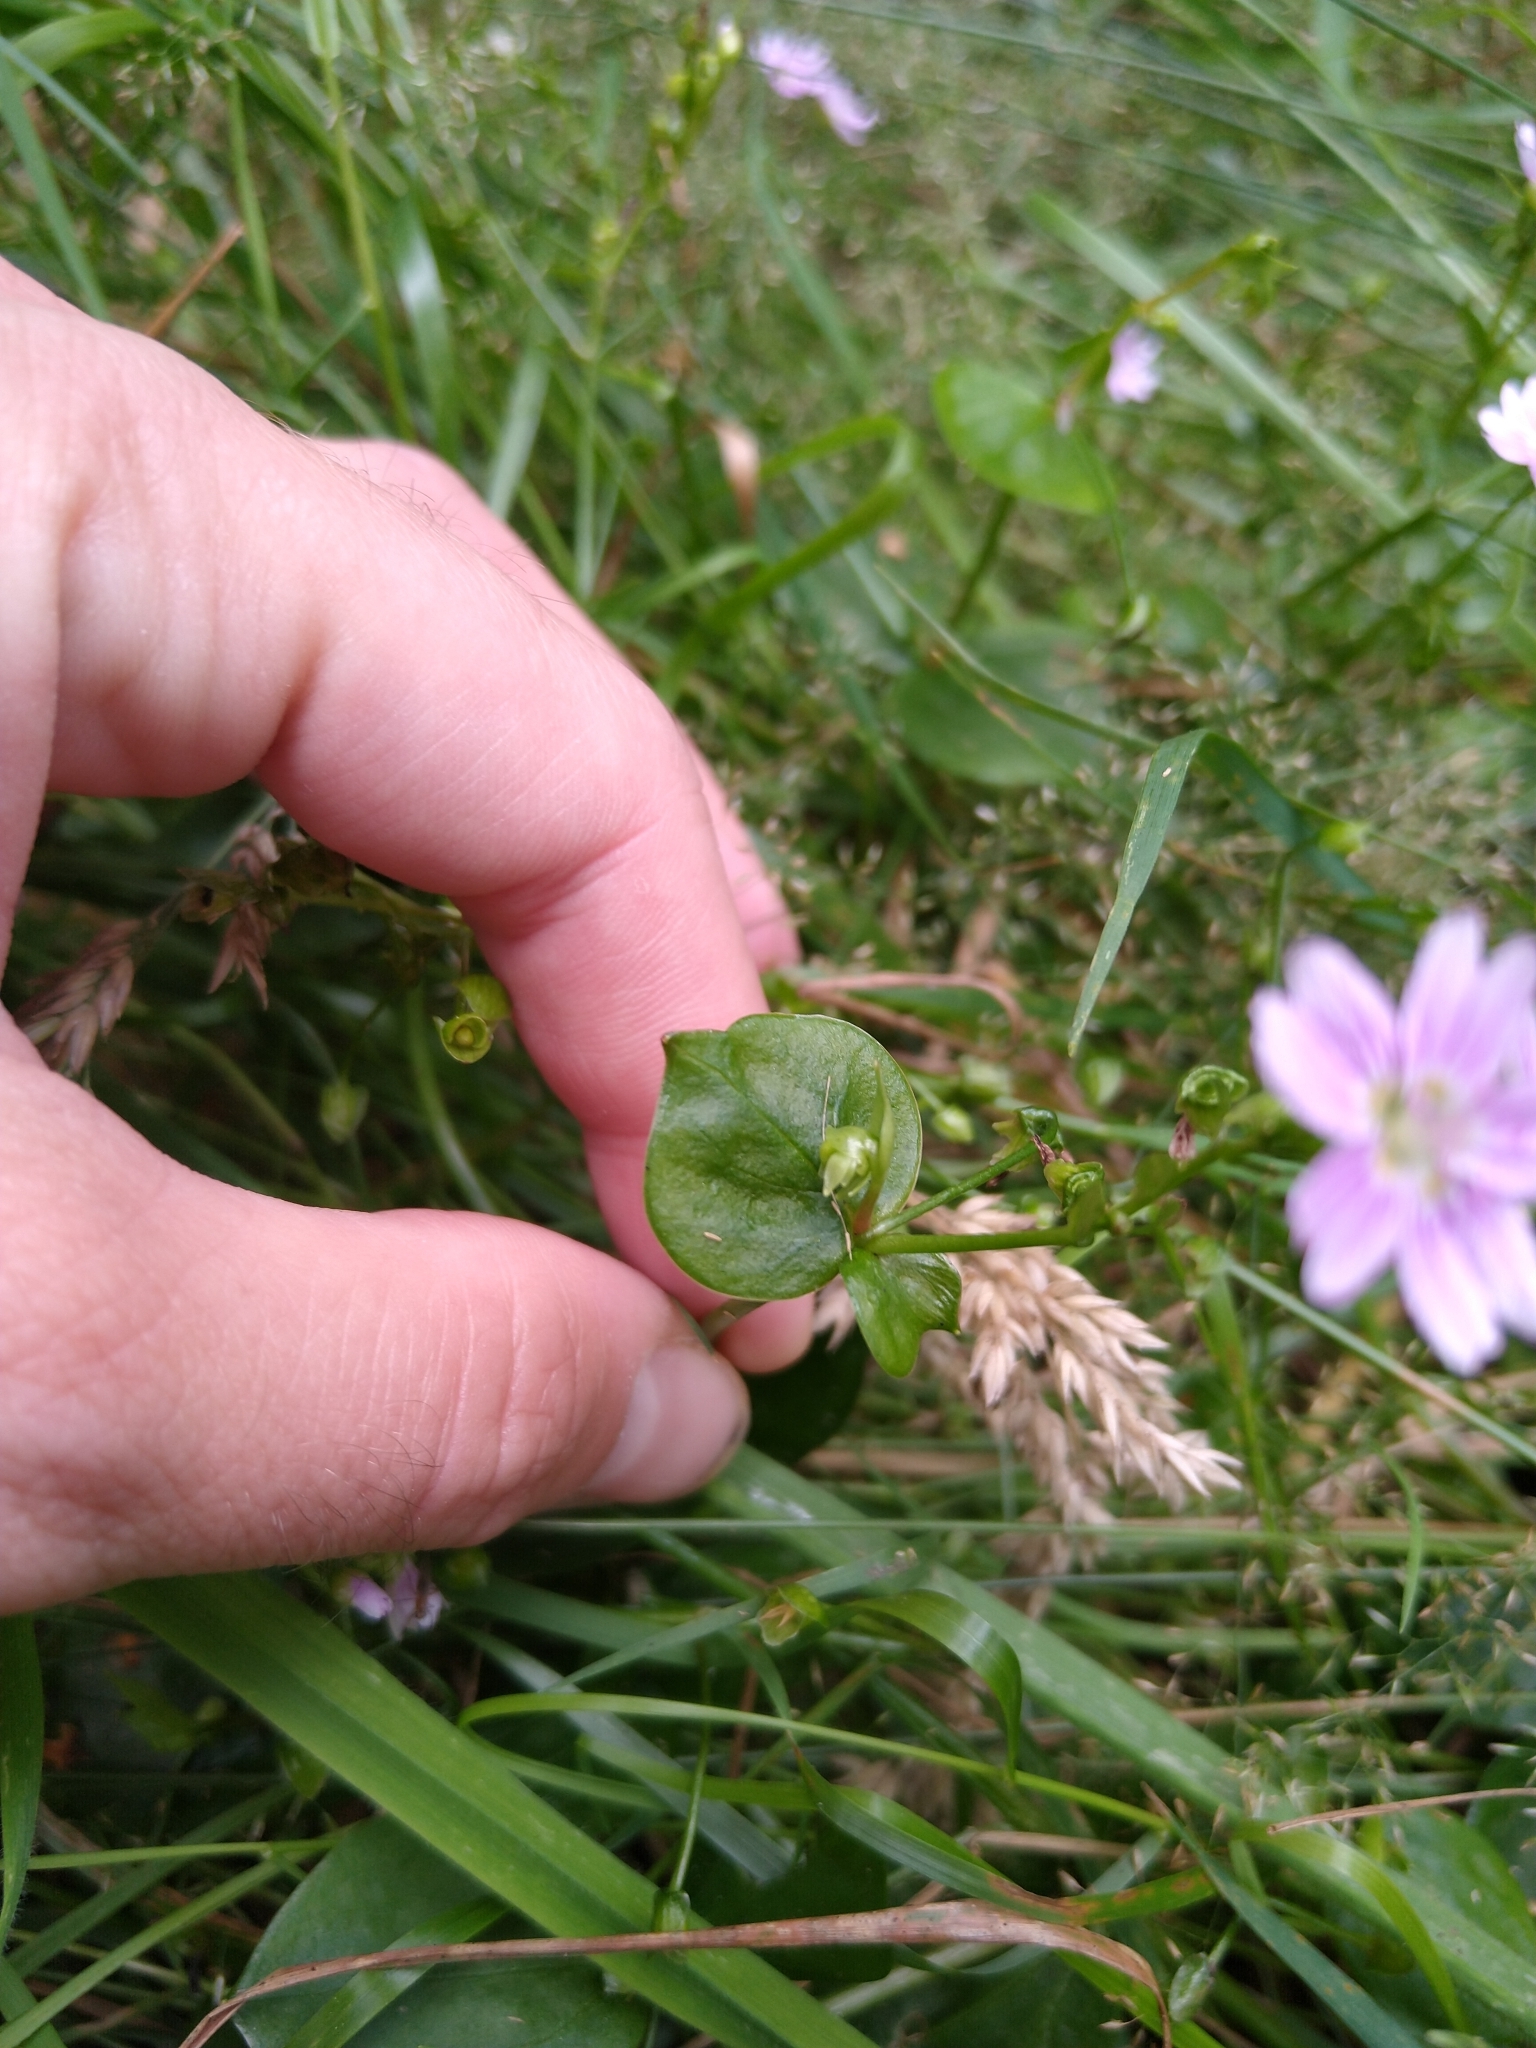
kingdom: Plantae
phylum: Tracheophyta
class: Magnoliopsida
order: Caryophyllales
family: Montiaceae
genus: Claytonia
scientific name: Claytonia sibirica
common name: Pink purslane
